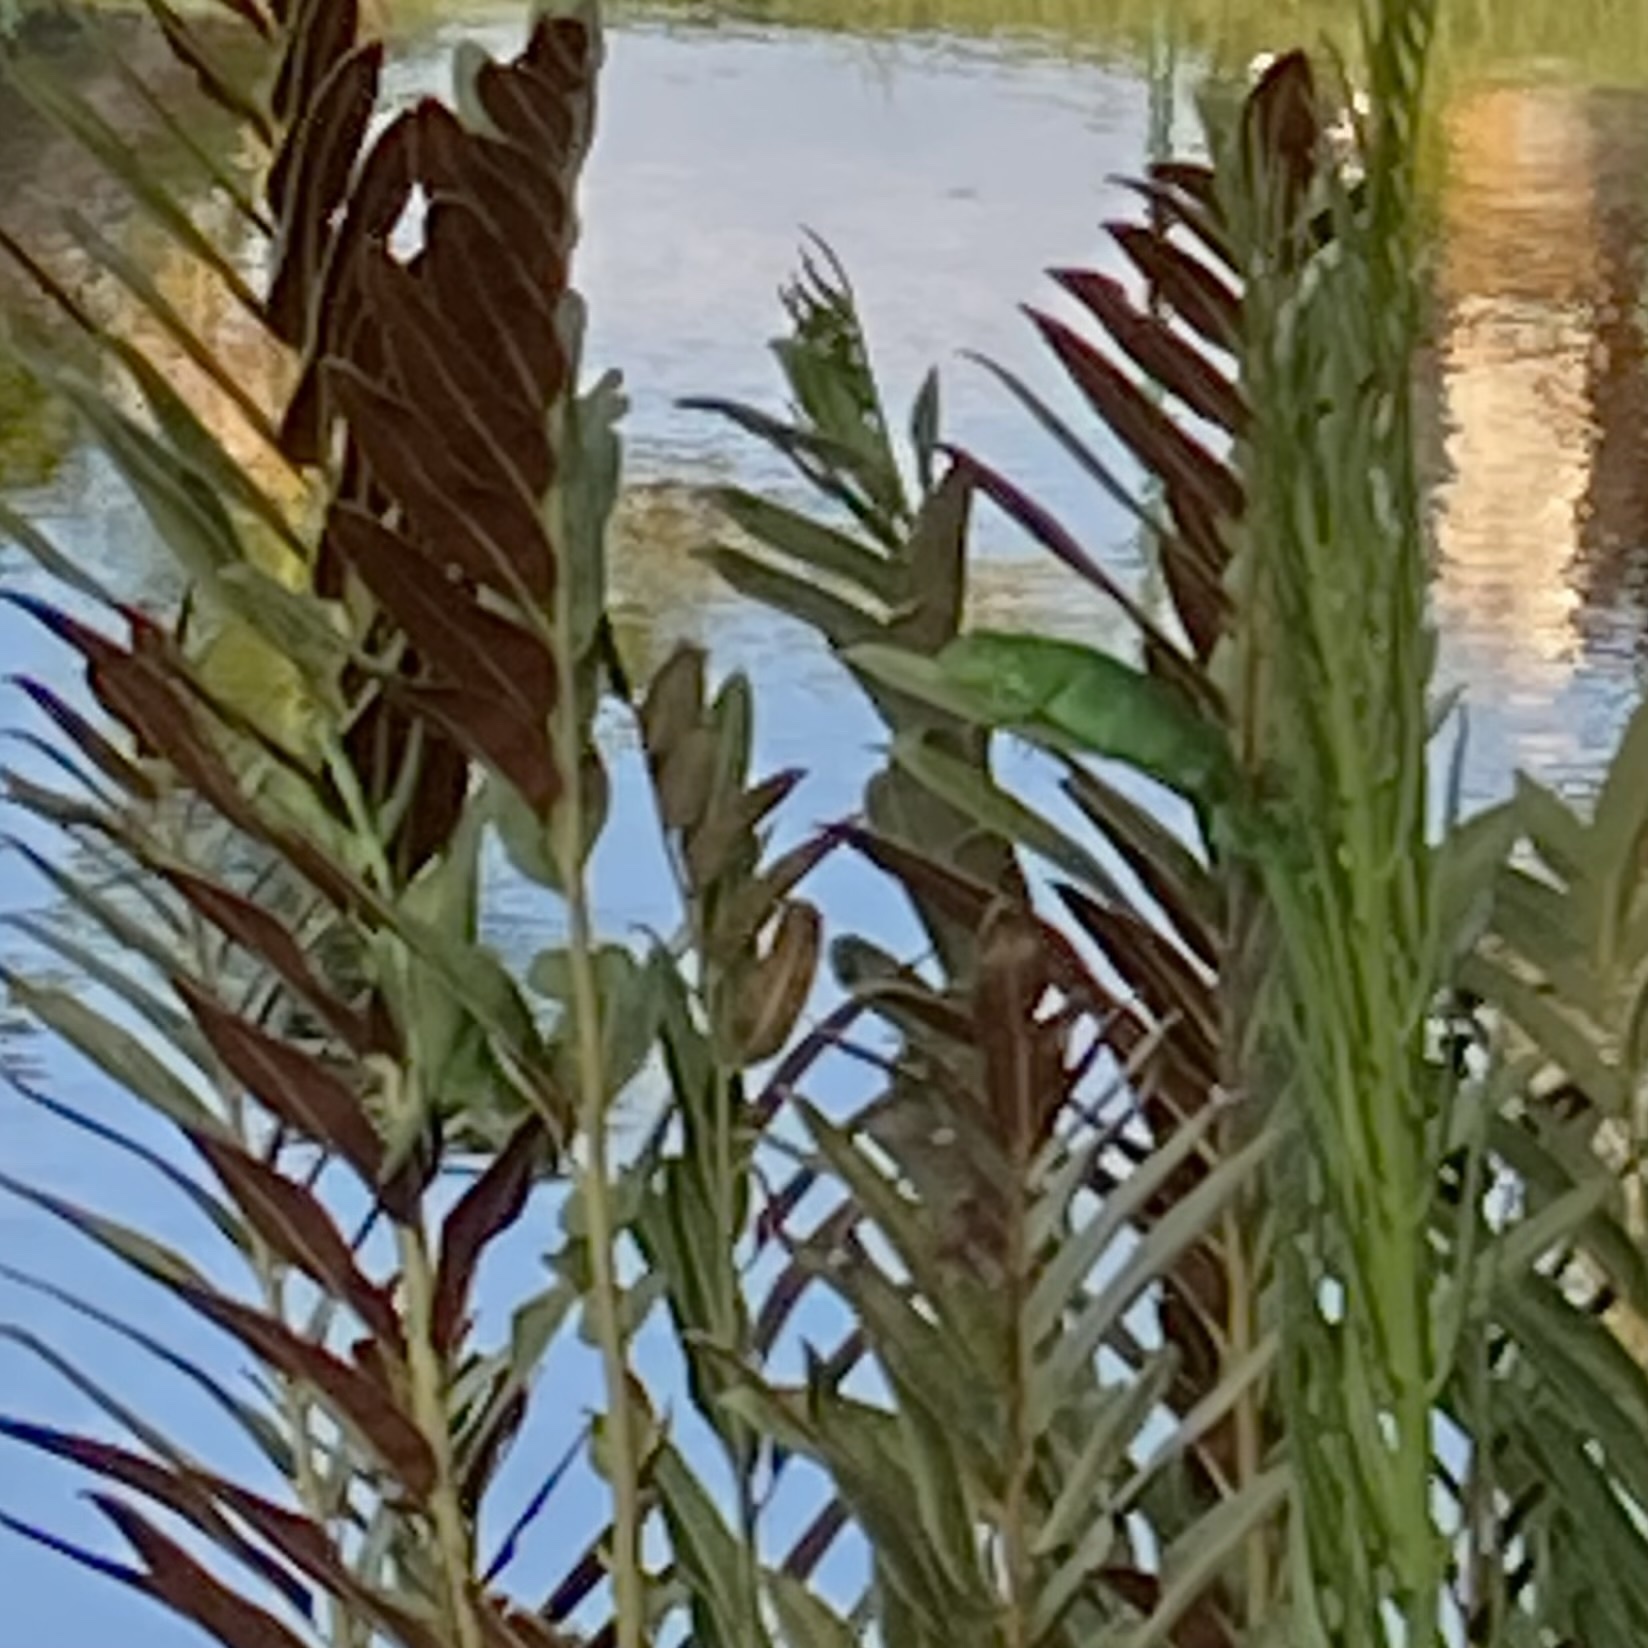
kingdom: Animalia
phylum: Chordata
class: Squamata
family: Iguanidae
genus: Iguana
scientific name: Iguana iguana
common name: Green iguana
